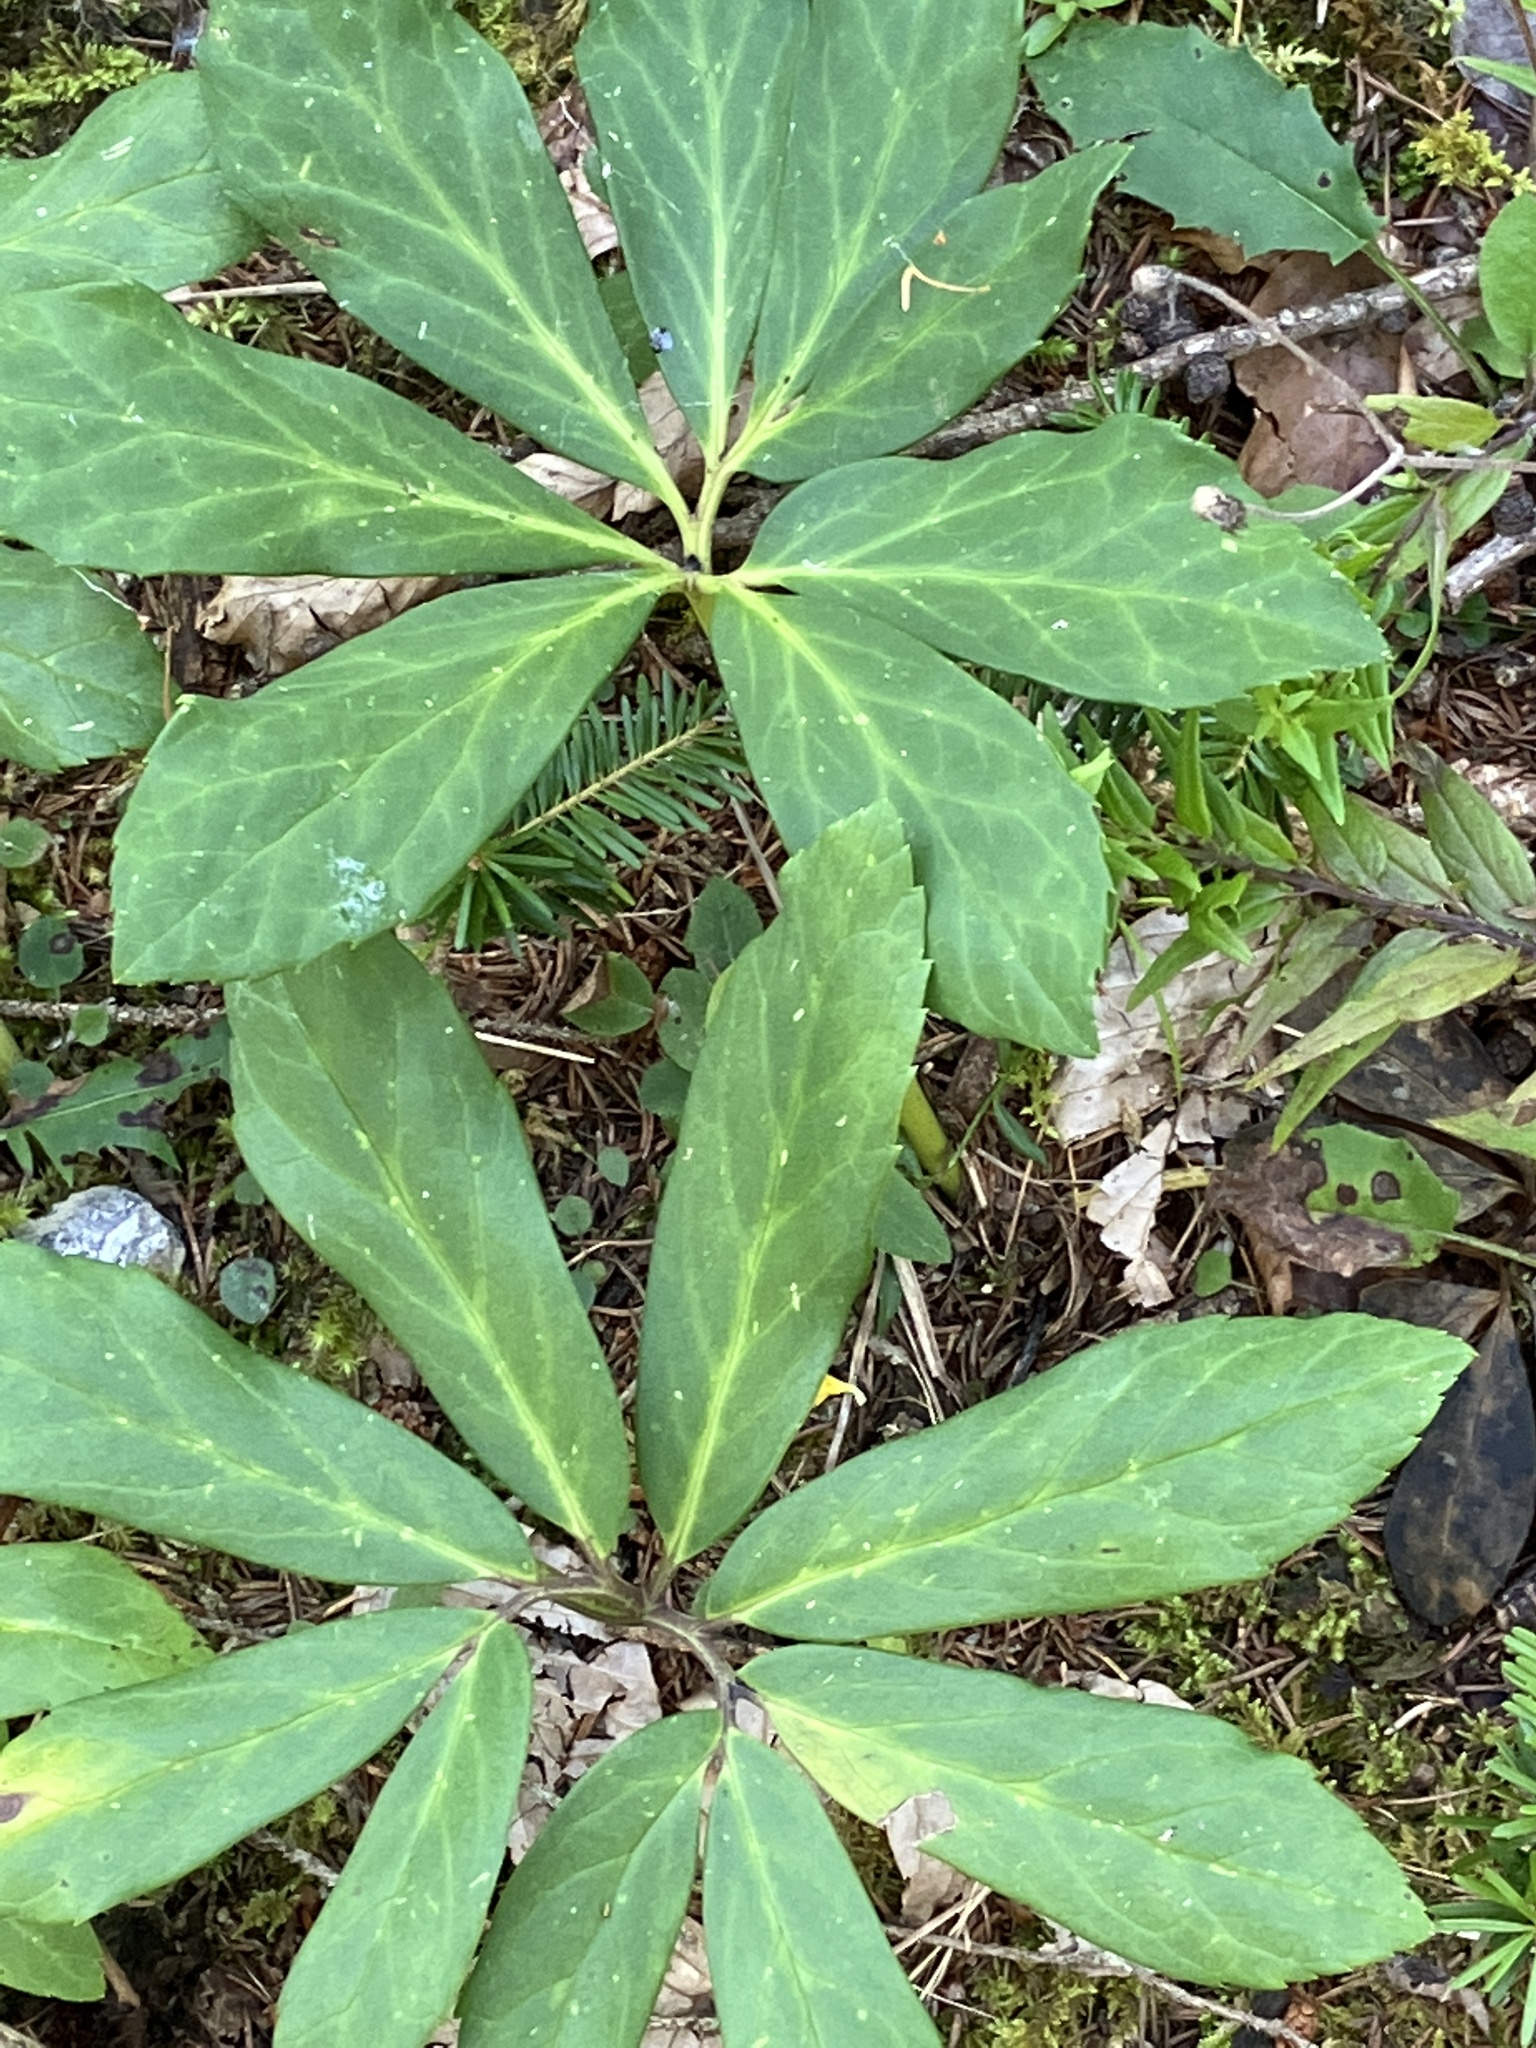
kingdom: Plantae
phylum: Tracheophyta
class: Magnoliopsida
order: Ranunculales
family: Ranunculaceae
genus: Helleborus
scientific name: Helleborus niger
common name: Black hellebore
